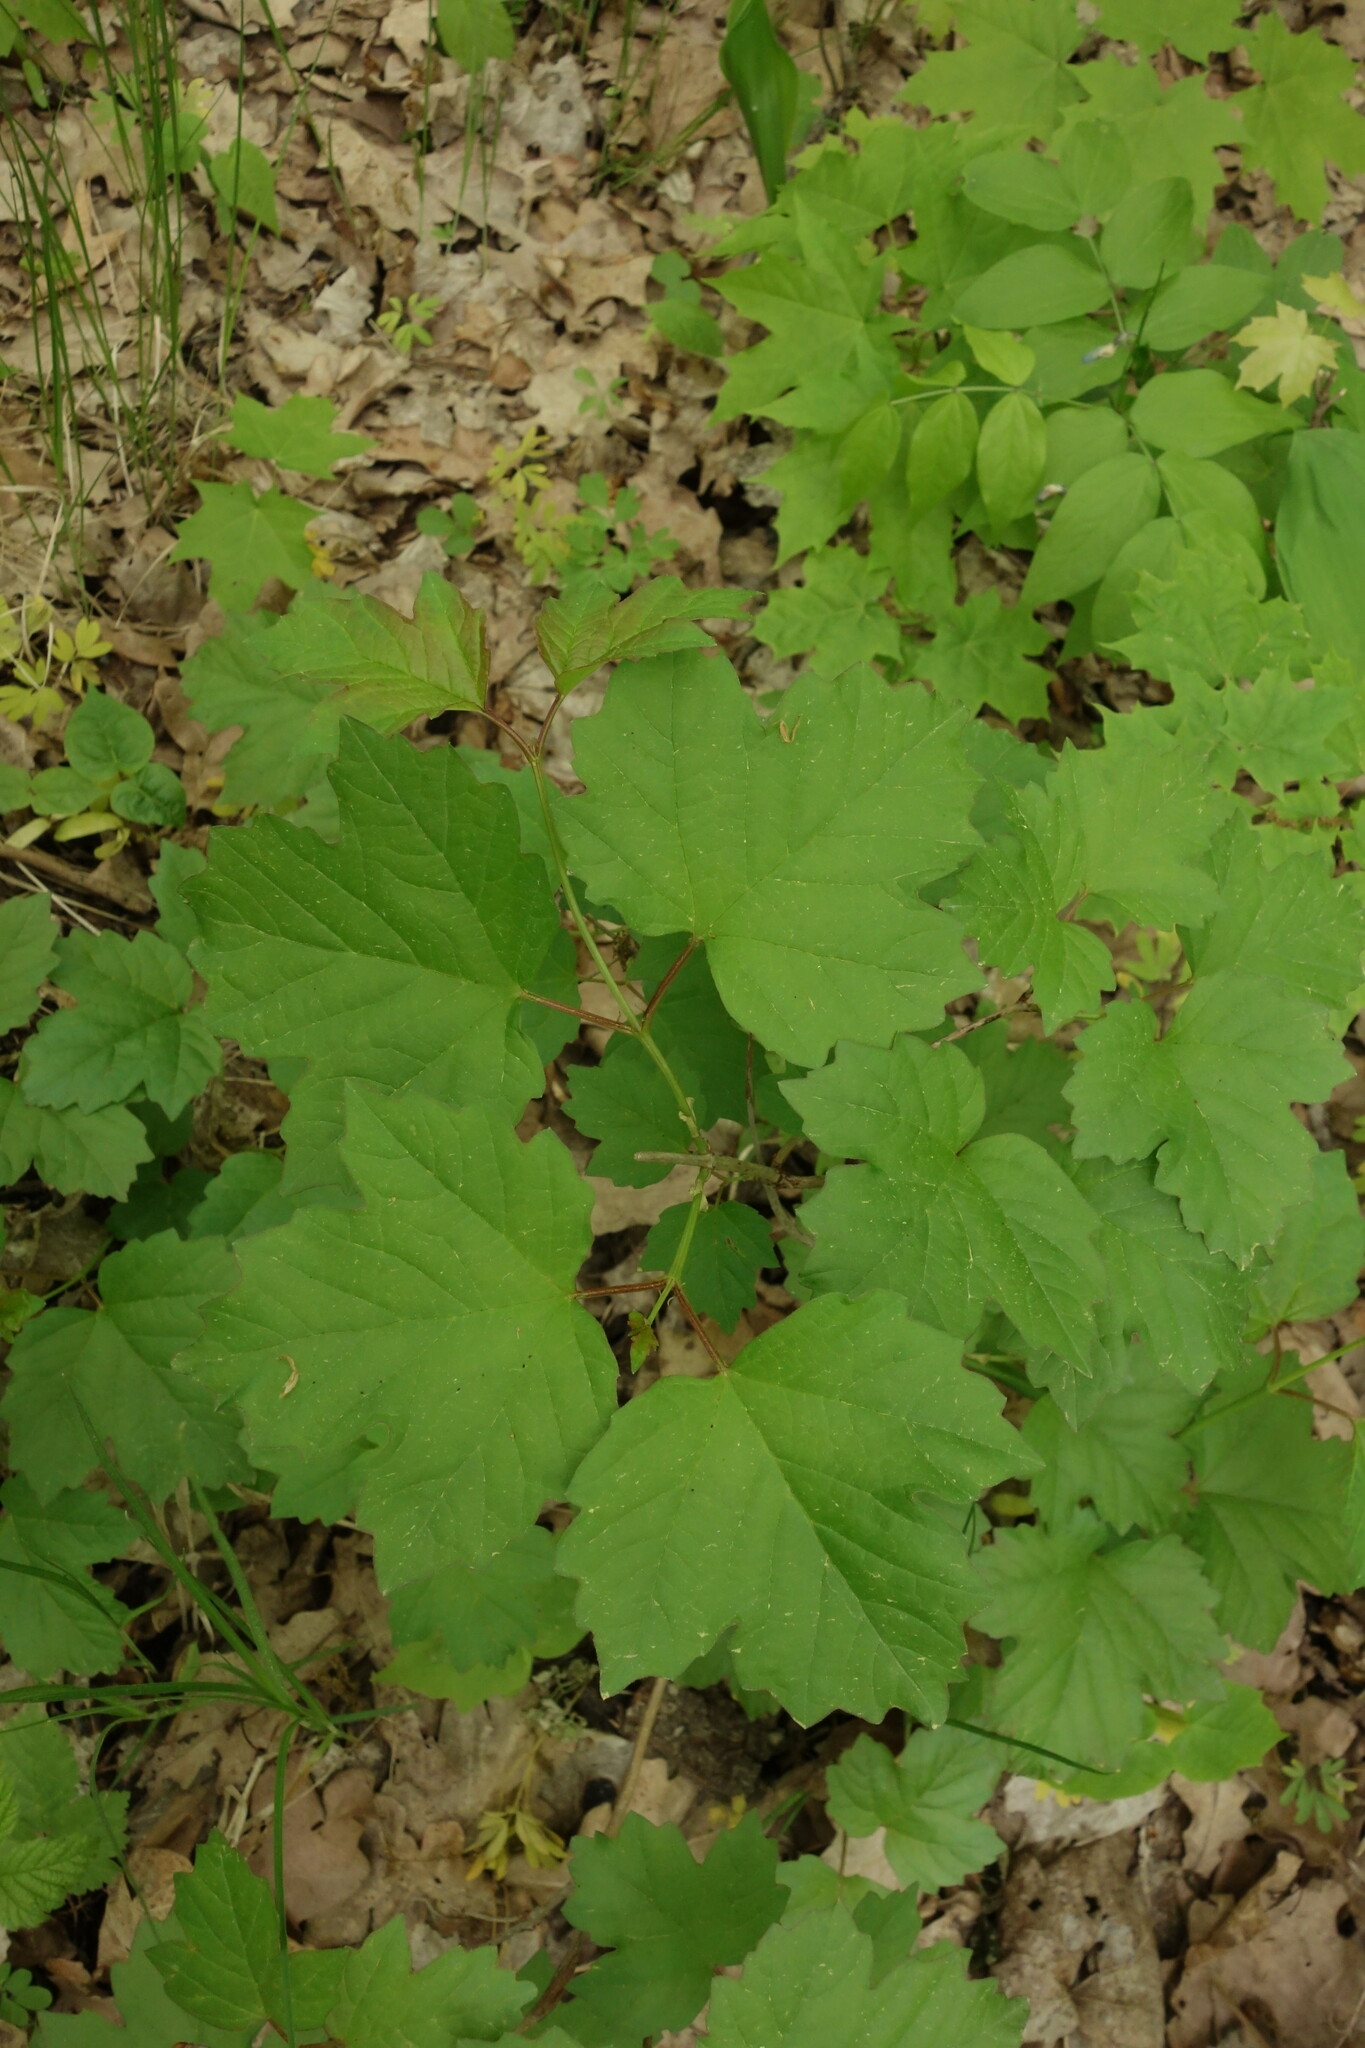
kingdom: Plantae
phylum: Tracheophyta
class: Magnoliopsida
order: Dipsacales
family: Viburnaceae
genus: Viburnum
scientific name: Viburnum opulus
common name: Guelder-rose
